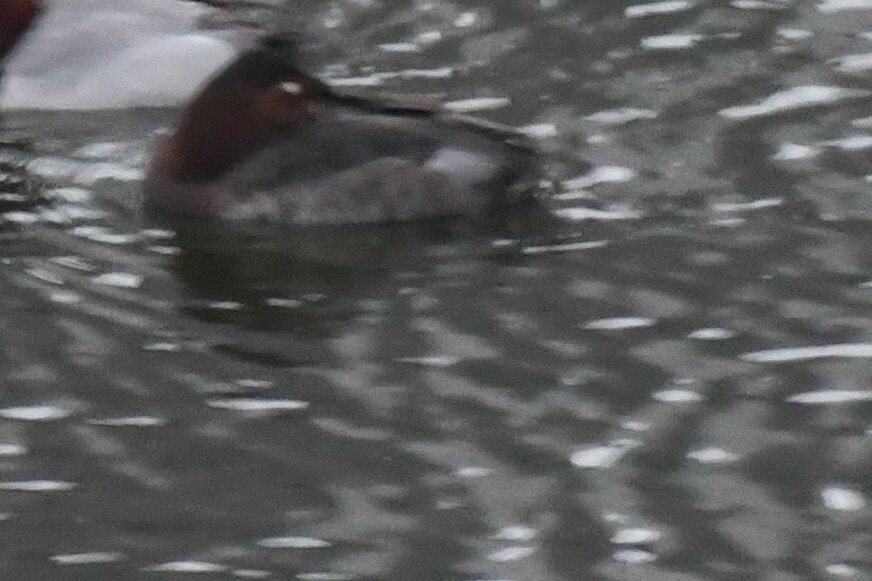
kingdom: Animalia
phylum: Chordata
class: Aves
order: Anseriformes
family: Anatidae
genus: Aythya
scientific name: Aythya
